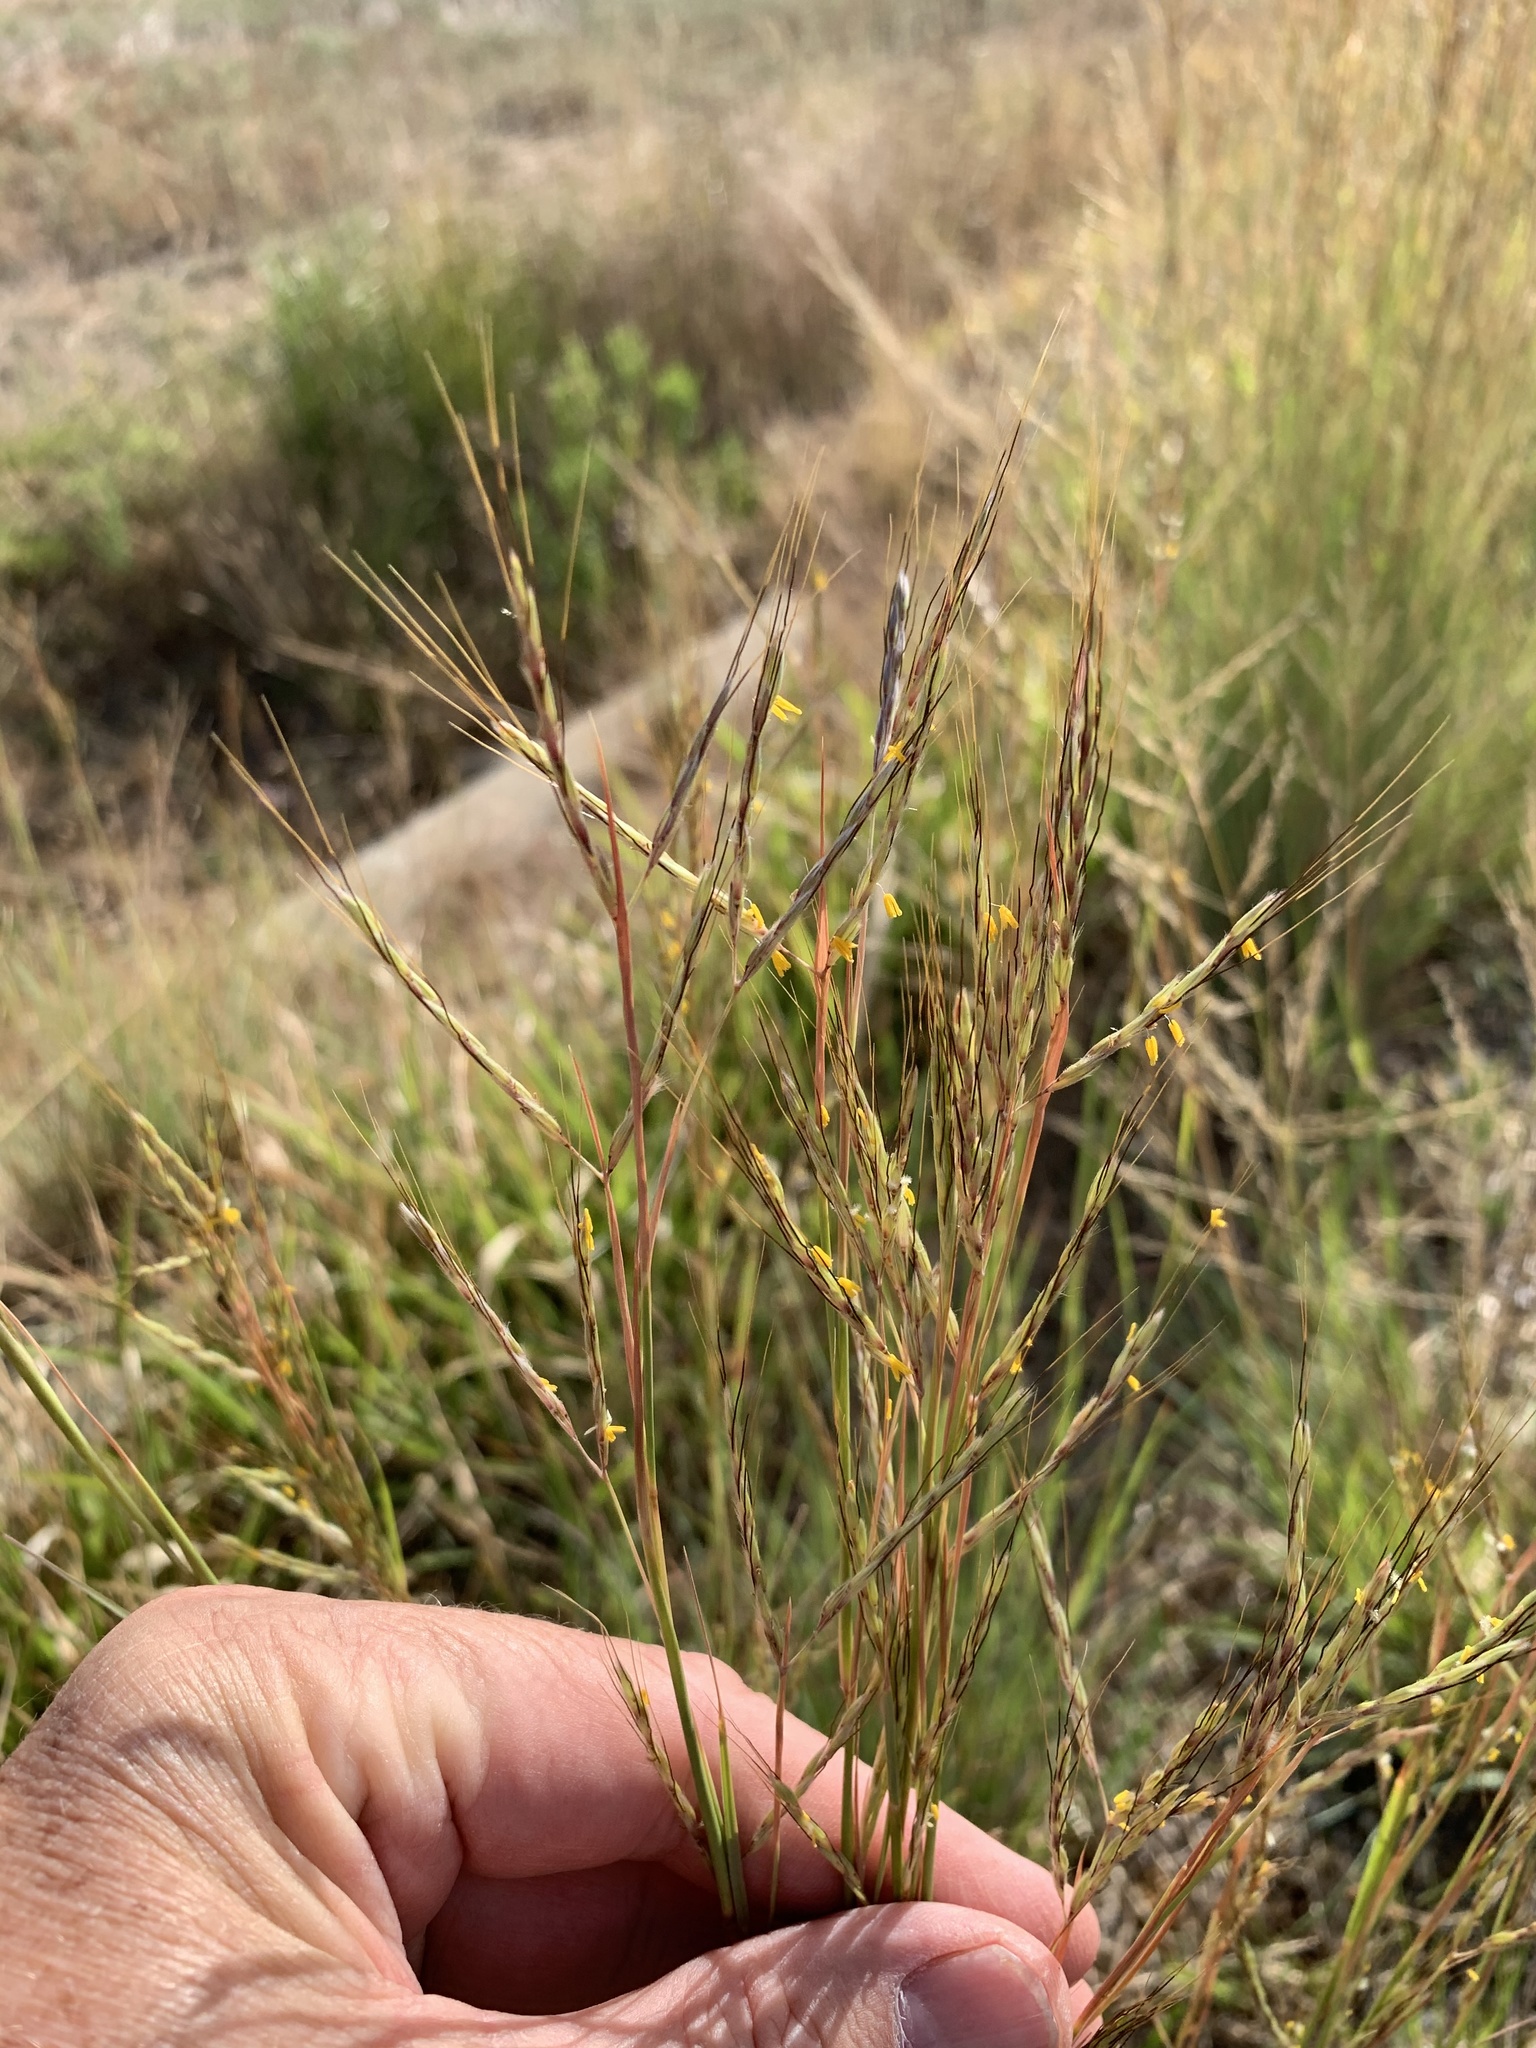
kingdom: Plantae
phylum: Tracheophyta
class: Liliopsida
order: Poales
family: Poaceae
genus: Hyparrhenia
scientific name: Hyparrhenia hirta
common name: Thatching grass
